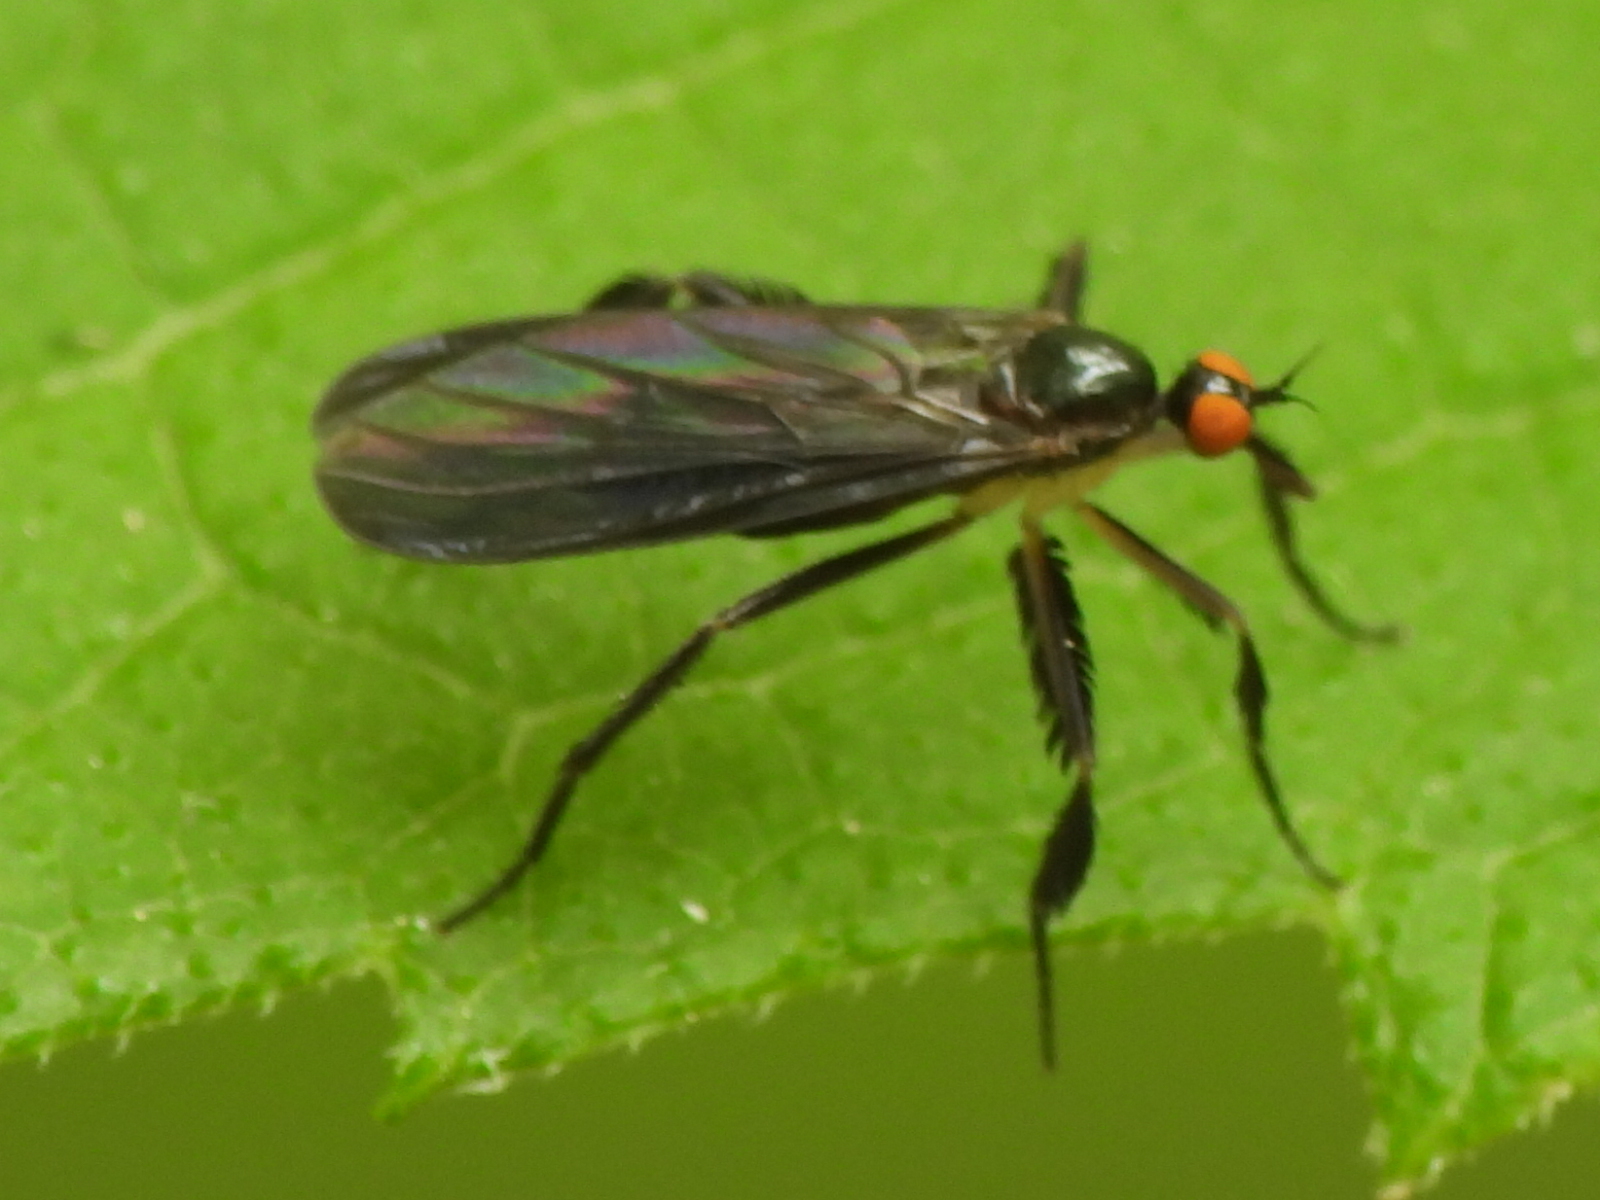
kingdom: Animalia
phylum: Arthropoda
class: Insecta
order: Diptera
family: Empididae
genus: Rhamphomyia
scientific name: Rhamphomyia longicauda
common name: Long-tailed dance fly
